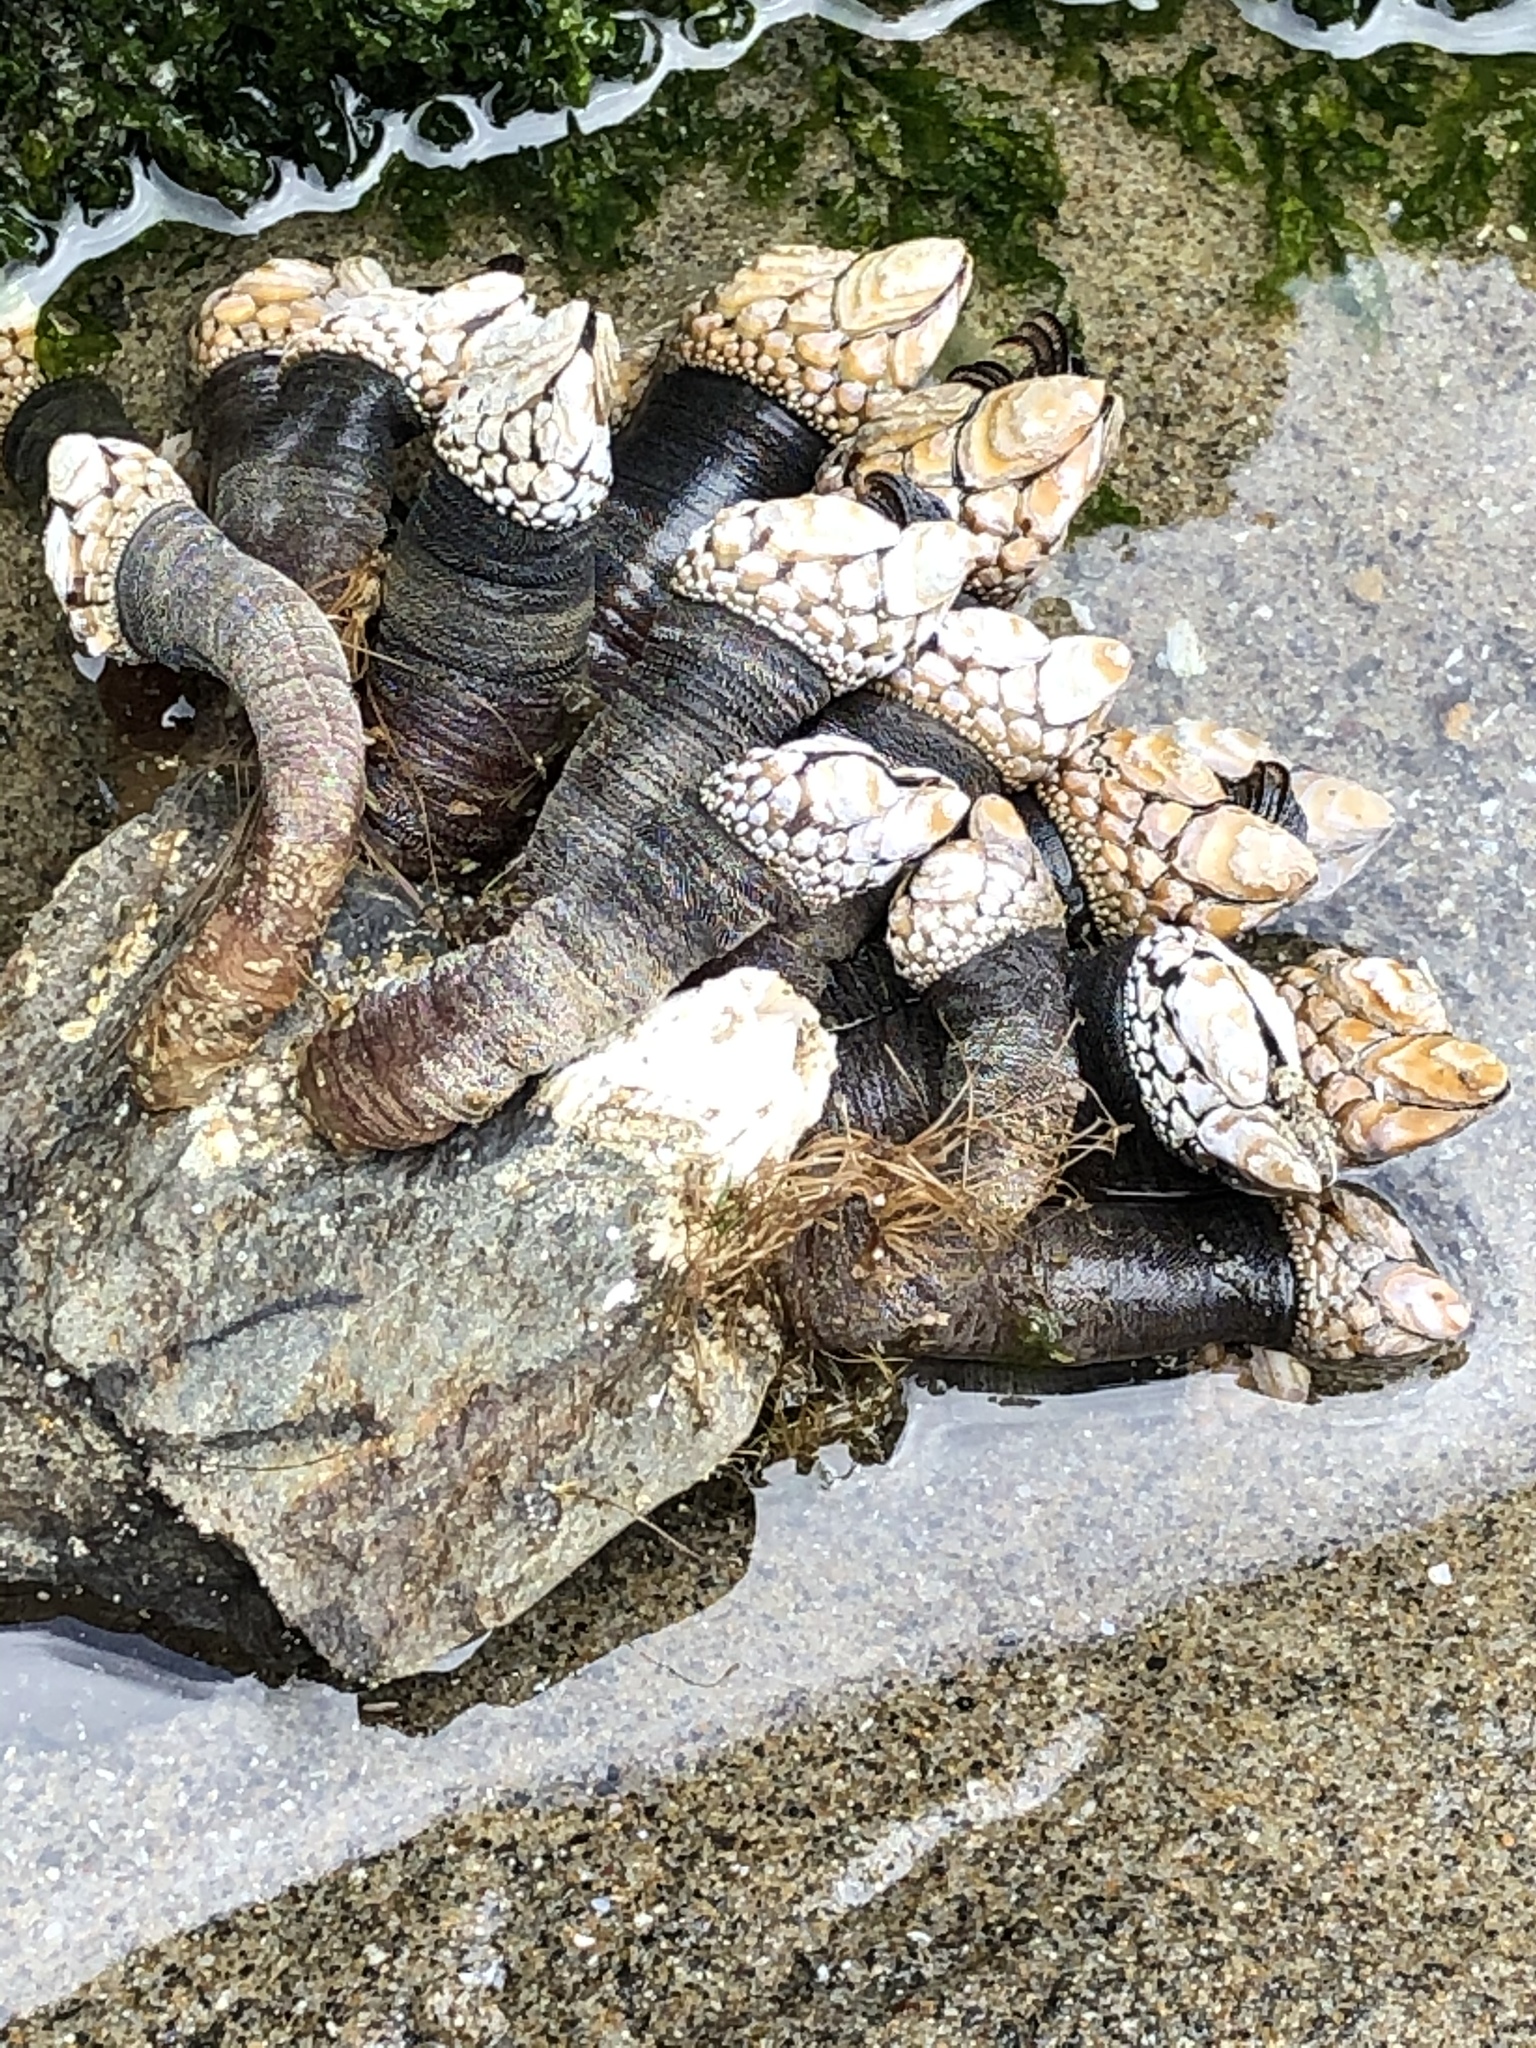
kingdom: Animalia
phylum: Arthropoda
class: Maxillopoda
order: Pedunculata
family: Pollicipedidae
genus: Pollicipes
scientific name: Pollicipes polymerus
